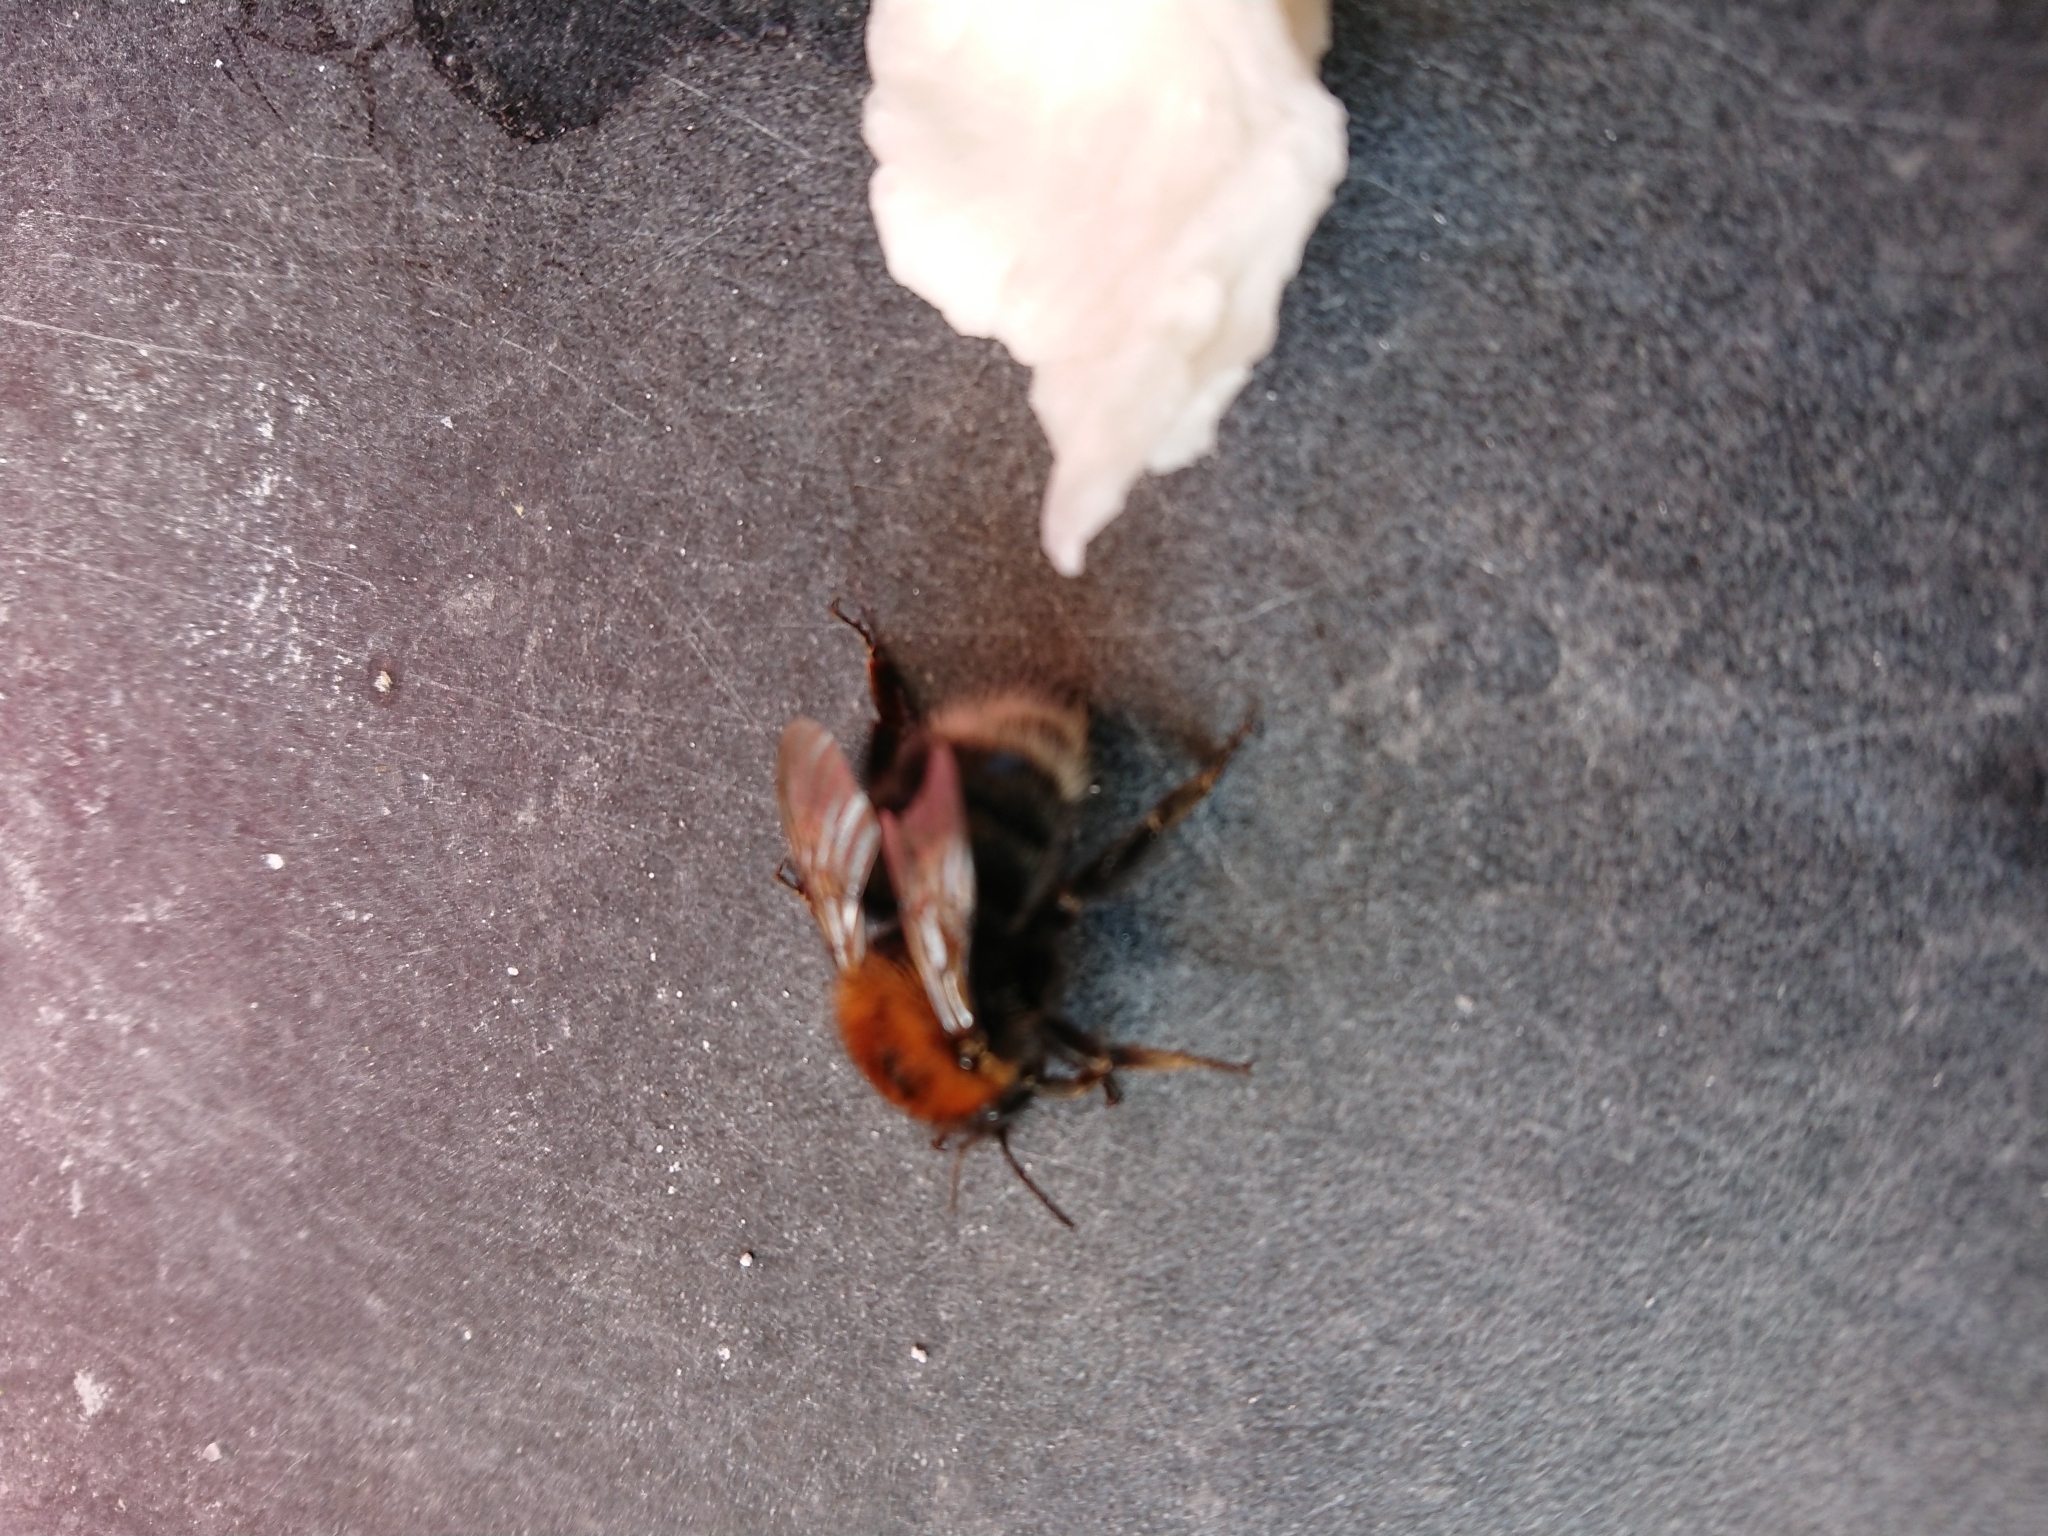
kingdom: Animalia
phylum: Arthropoda
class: Insecta
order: Hymenoptera
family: Apidae
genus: Bombus
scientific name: Bombus hypnorum
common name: New garden bumblebee
